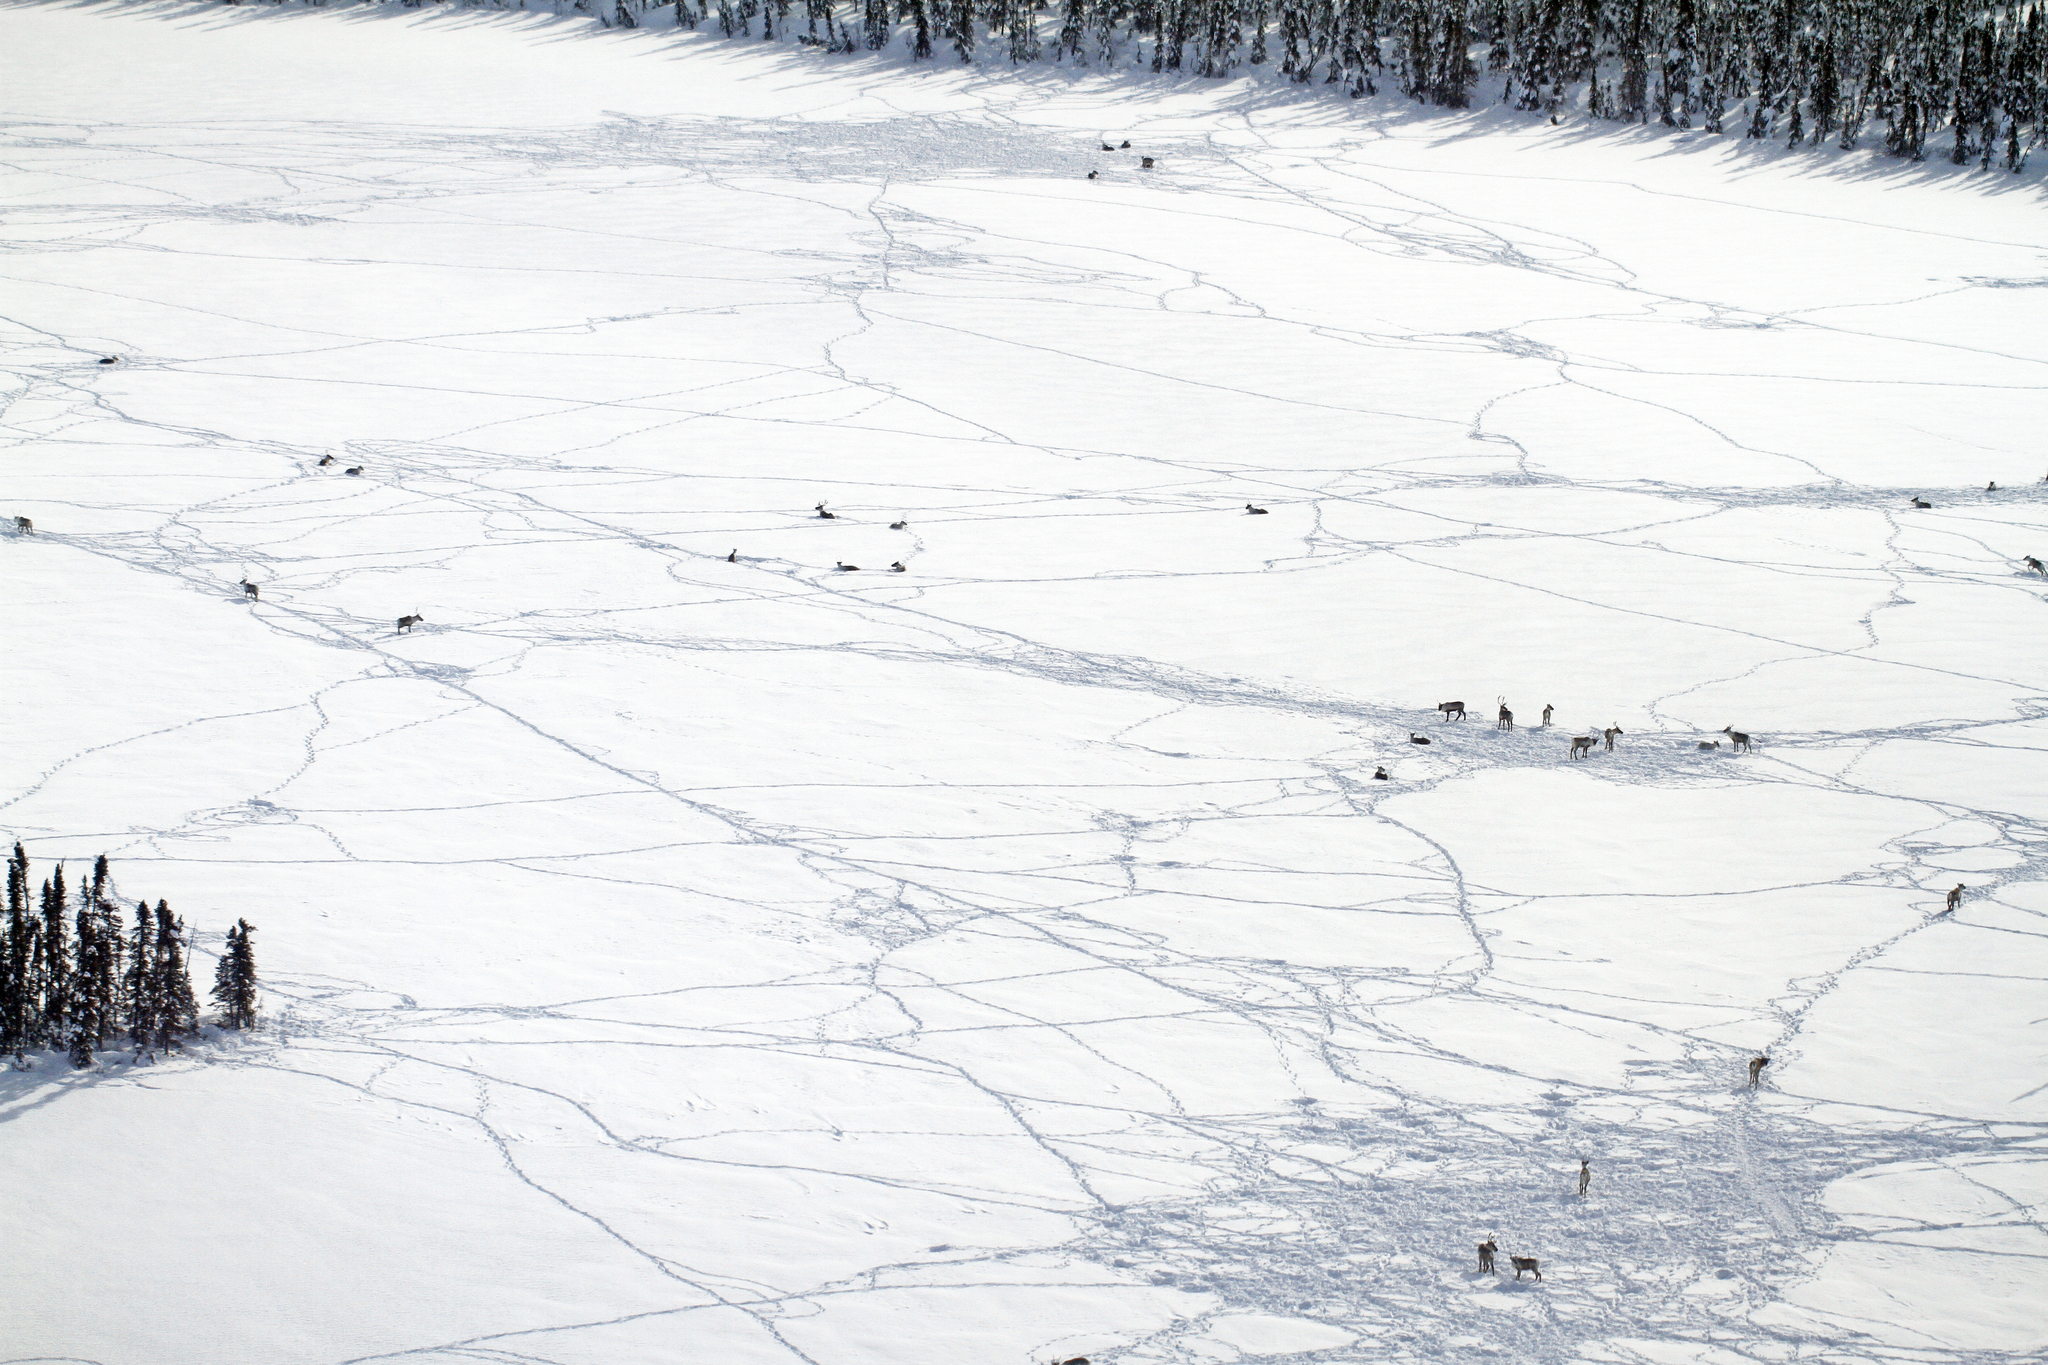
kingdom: Animalia
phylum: Chordata
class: Mammalia
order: Artiodactyla
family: Cervidae
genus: Rangifer
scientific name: Rangifer tarandus
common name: Reindeer
